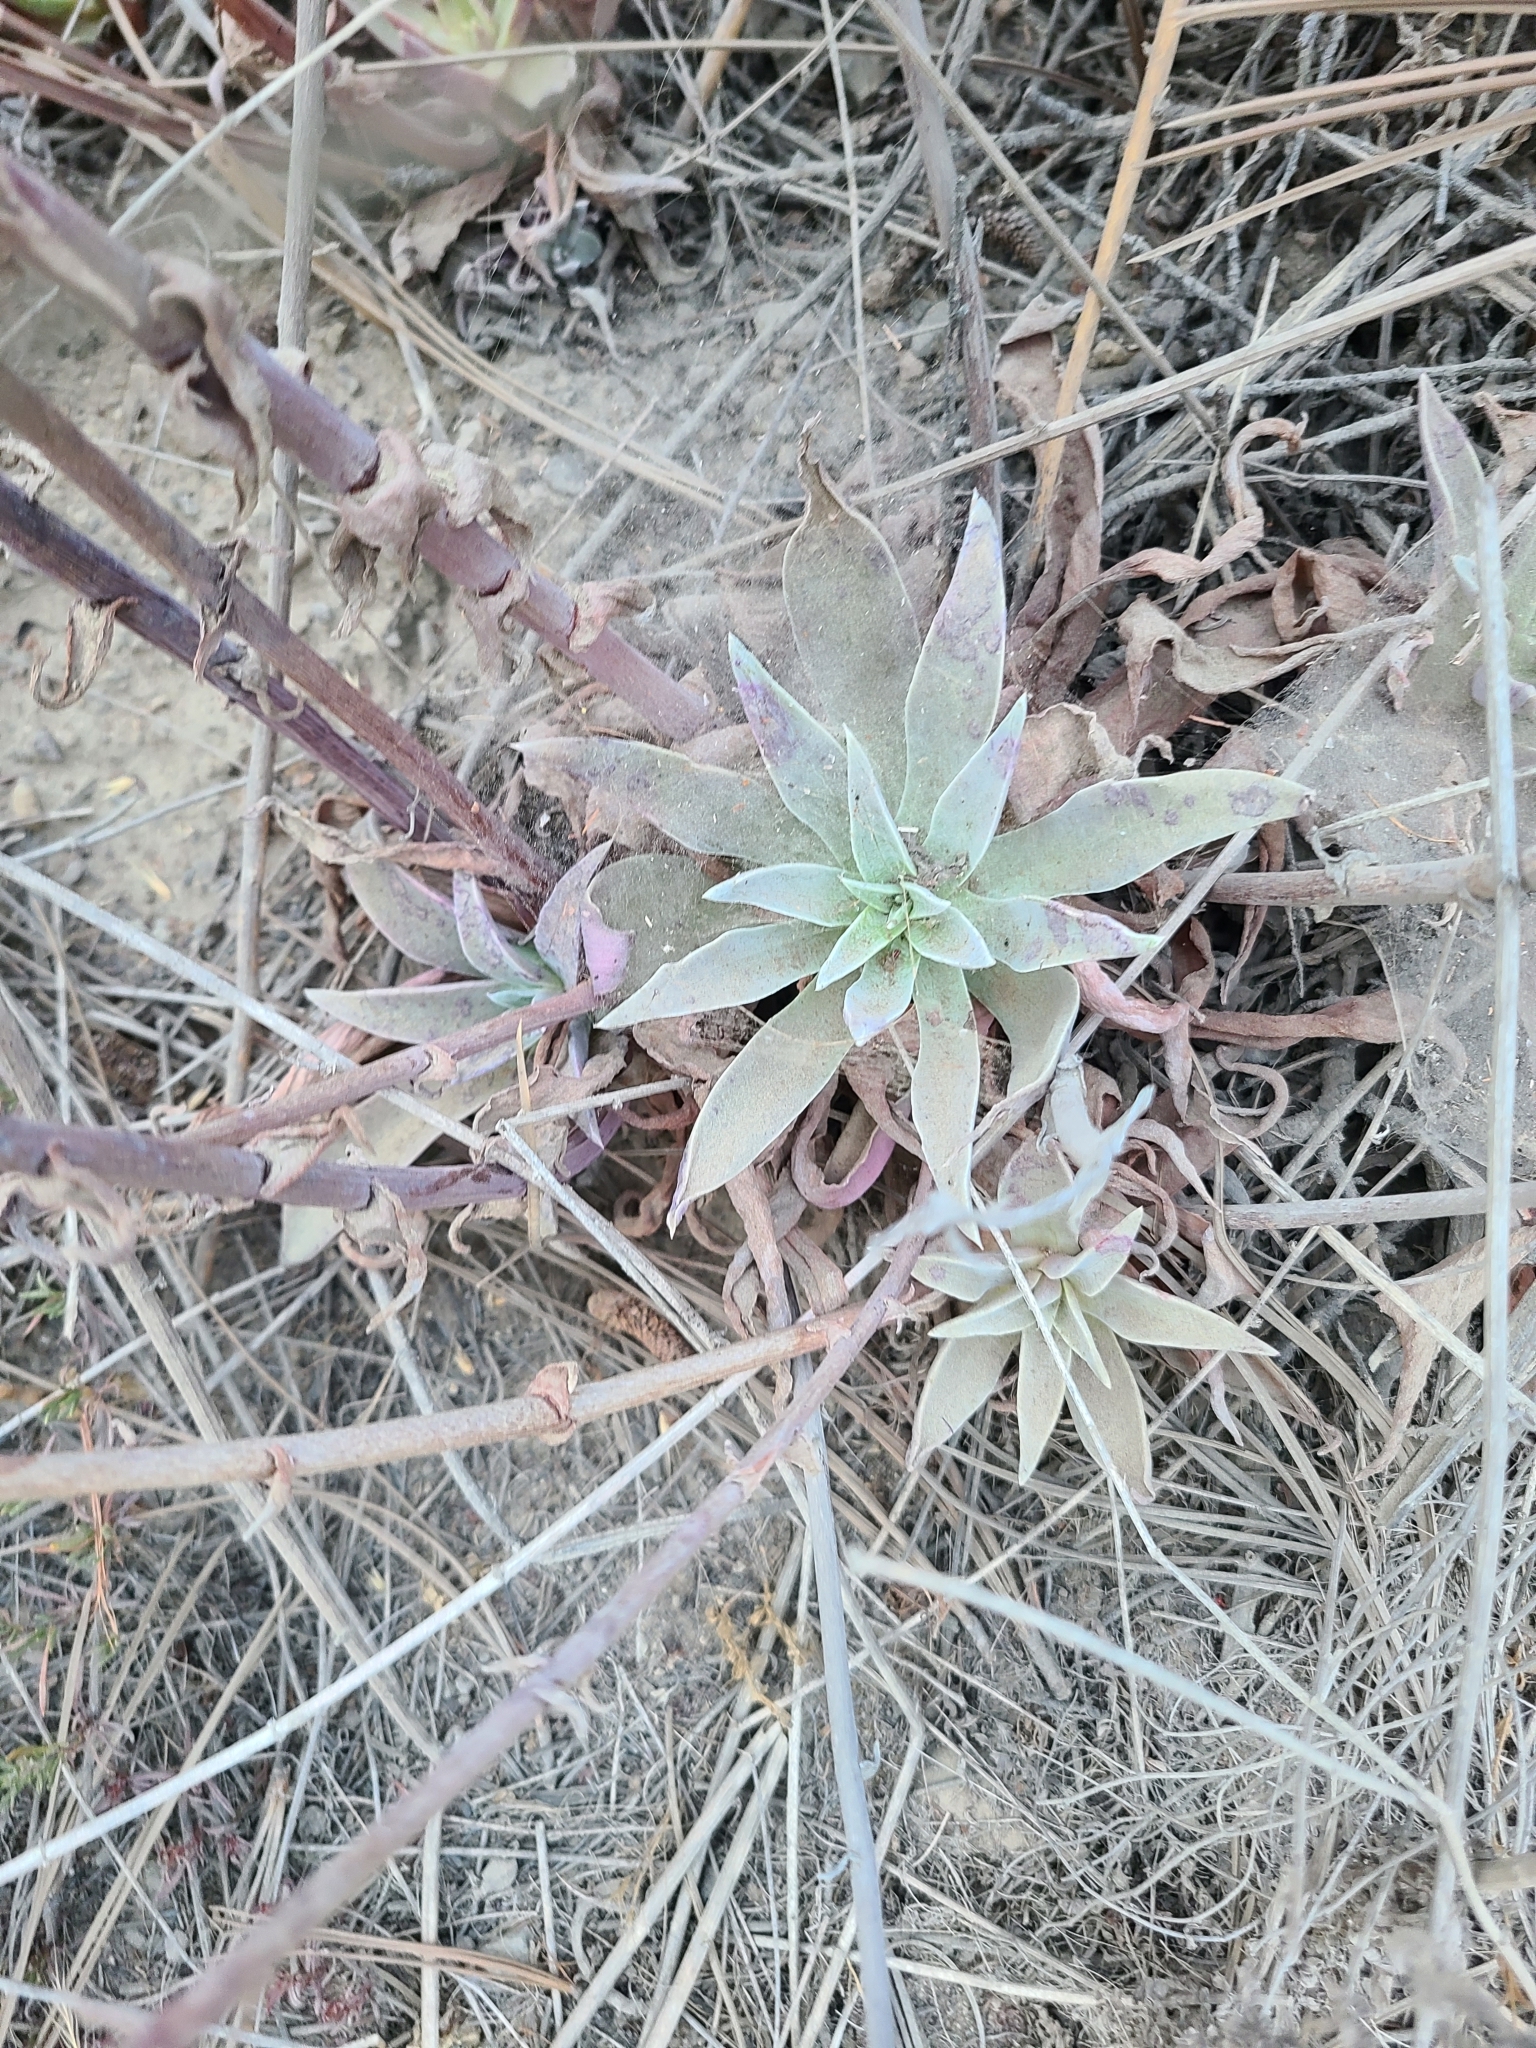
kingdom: Plantae
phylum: Tracheophyta
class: Magnoliopsida
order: Saxifragales
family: Crassulaceae
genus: Dudleya
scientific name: Dudleya lanceolata
